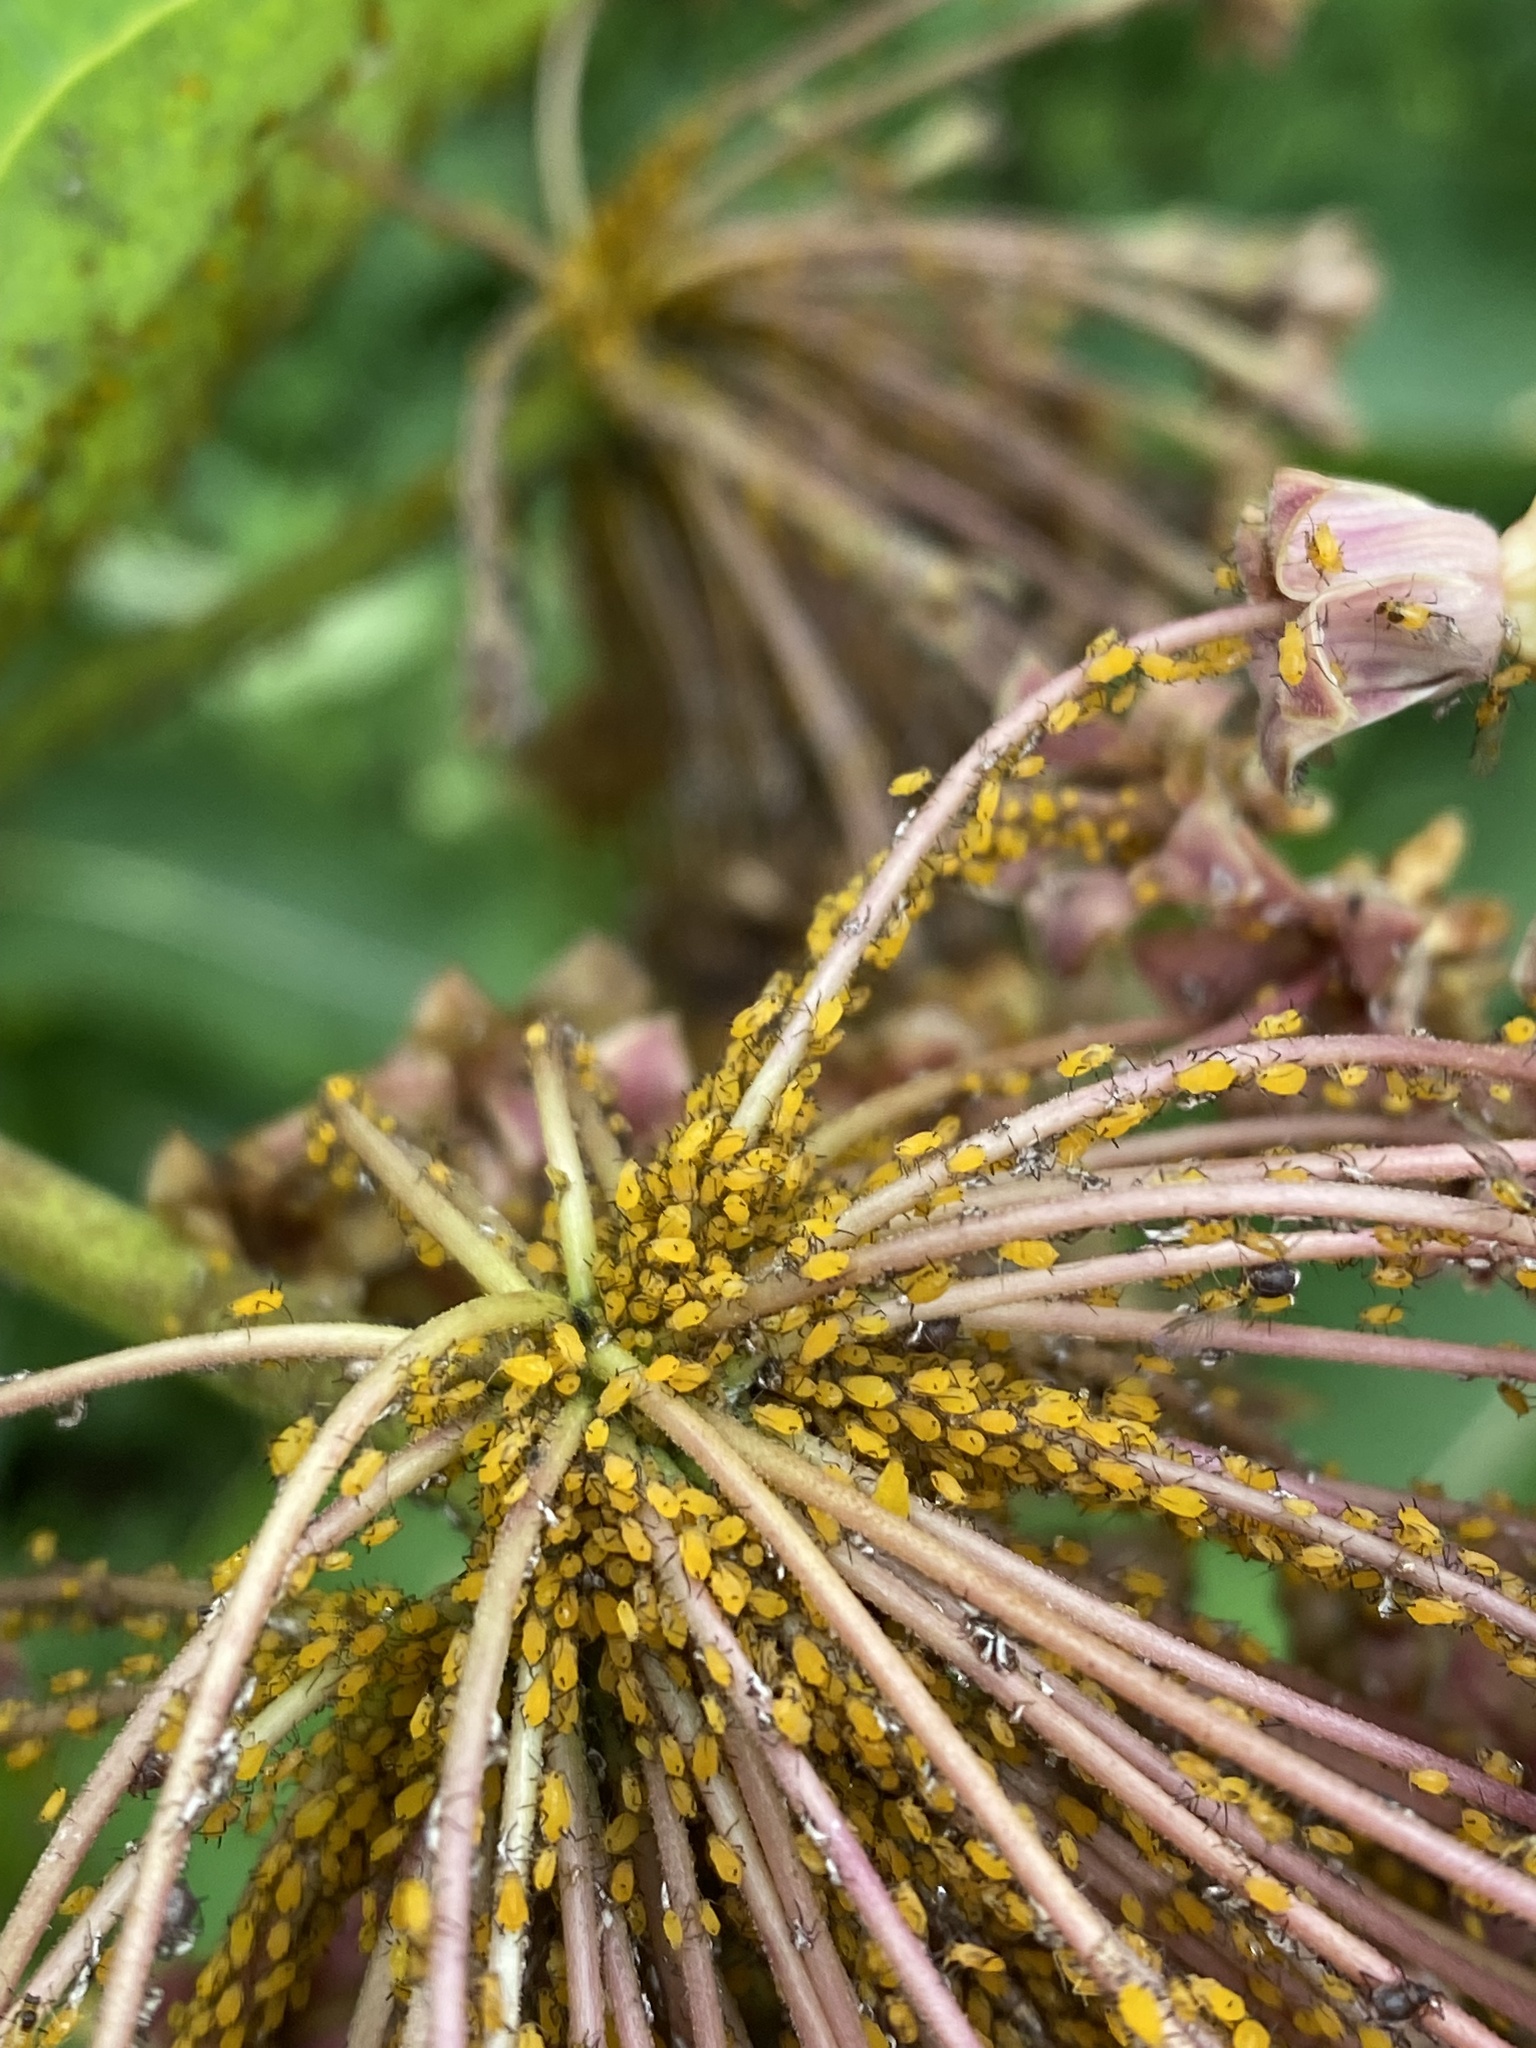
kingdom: Animalia
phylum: Arthropoda
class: Insecta
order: Hemiptera
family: Aphididae
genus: Aphis
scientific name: Aphis nerii
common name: Oleander aphid
